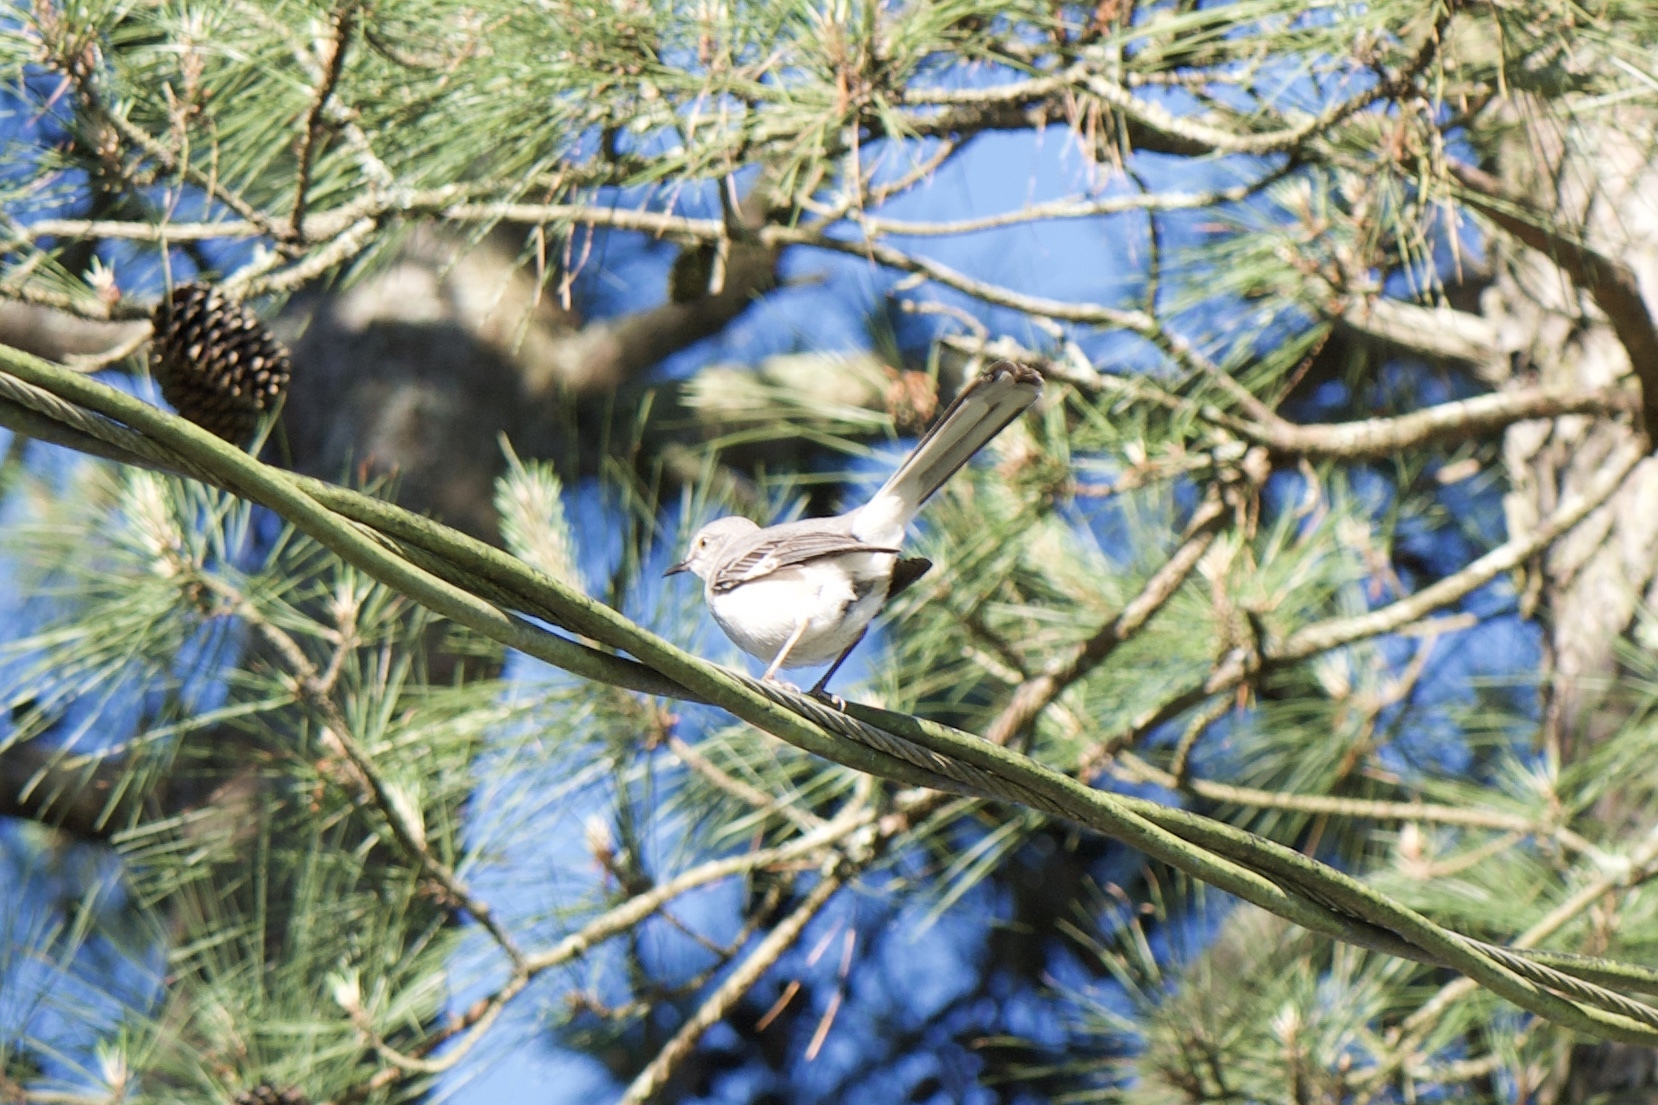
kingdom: Animalia
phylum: Chordata
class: Aves
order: Passeriformes
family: Mimidae
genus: Mimus
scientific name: Mimus polyglottos
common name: Northern mockingbird
